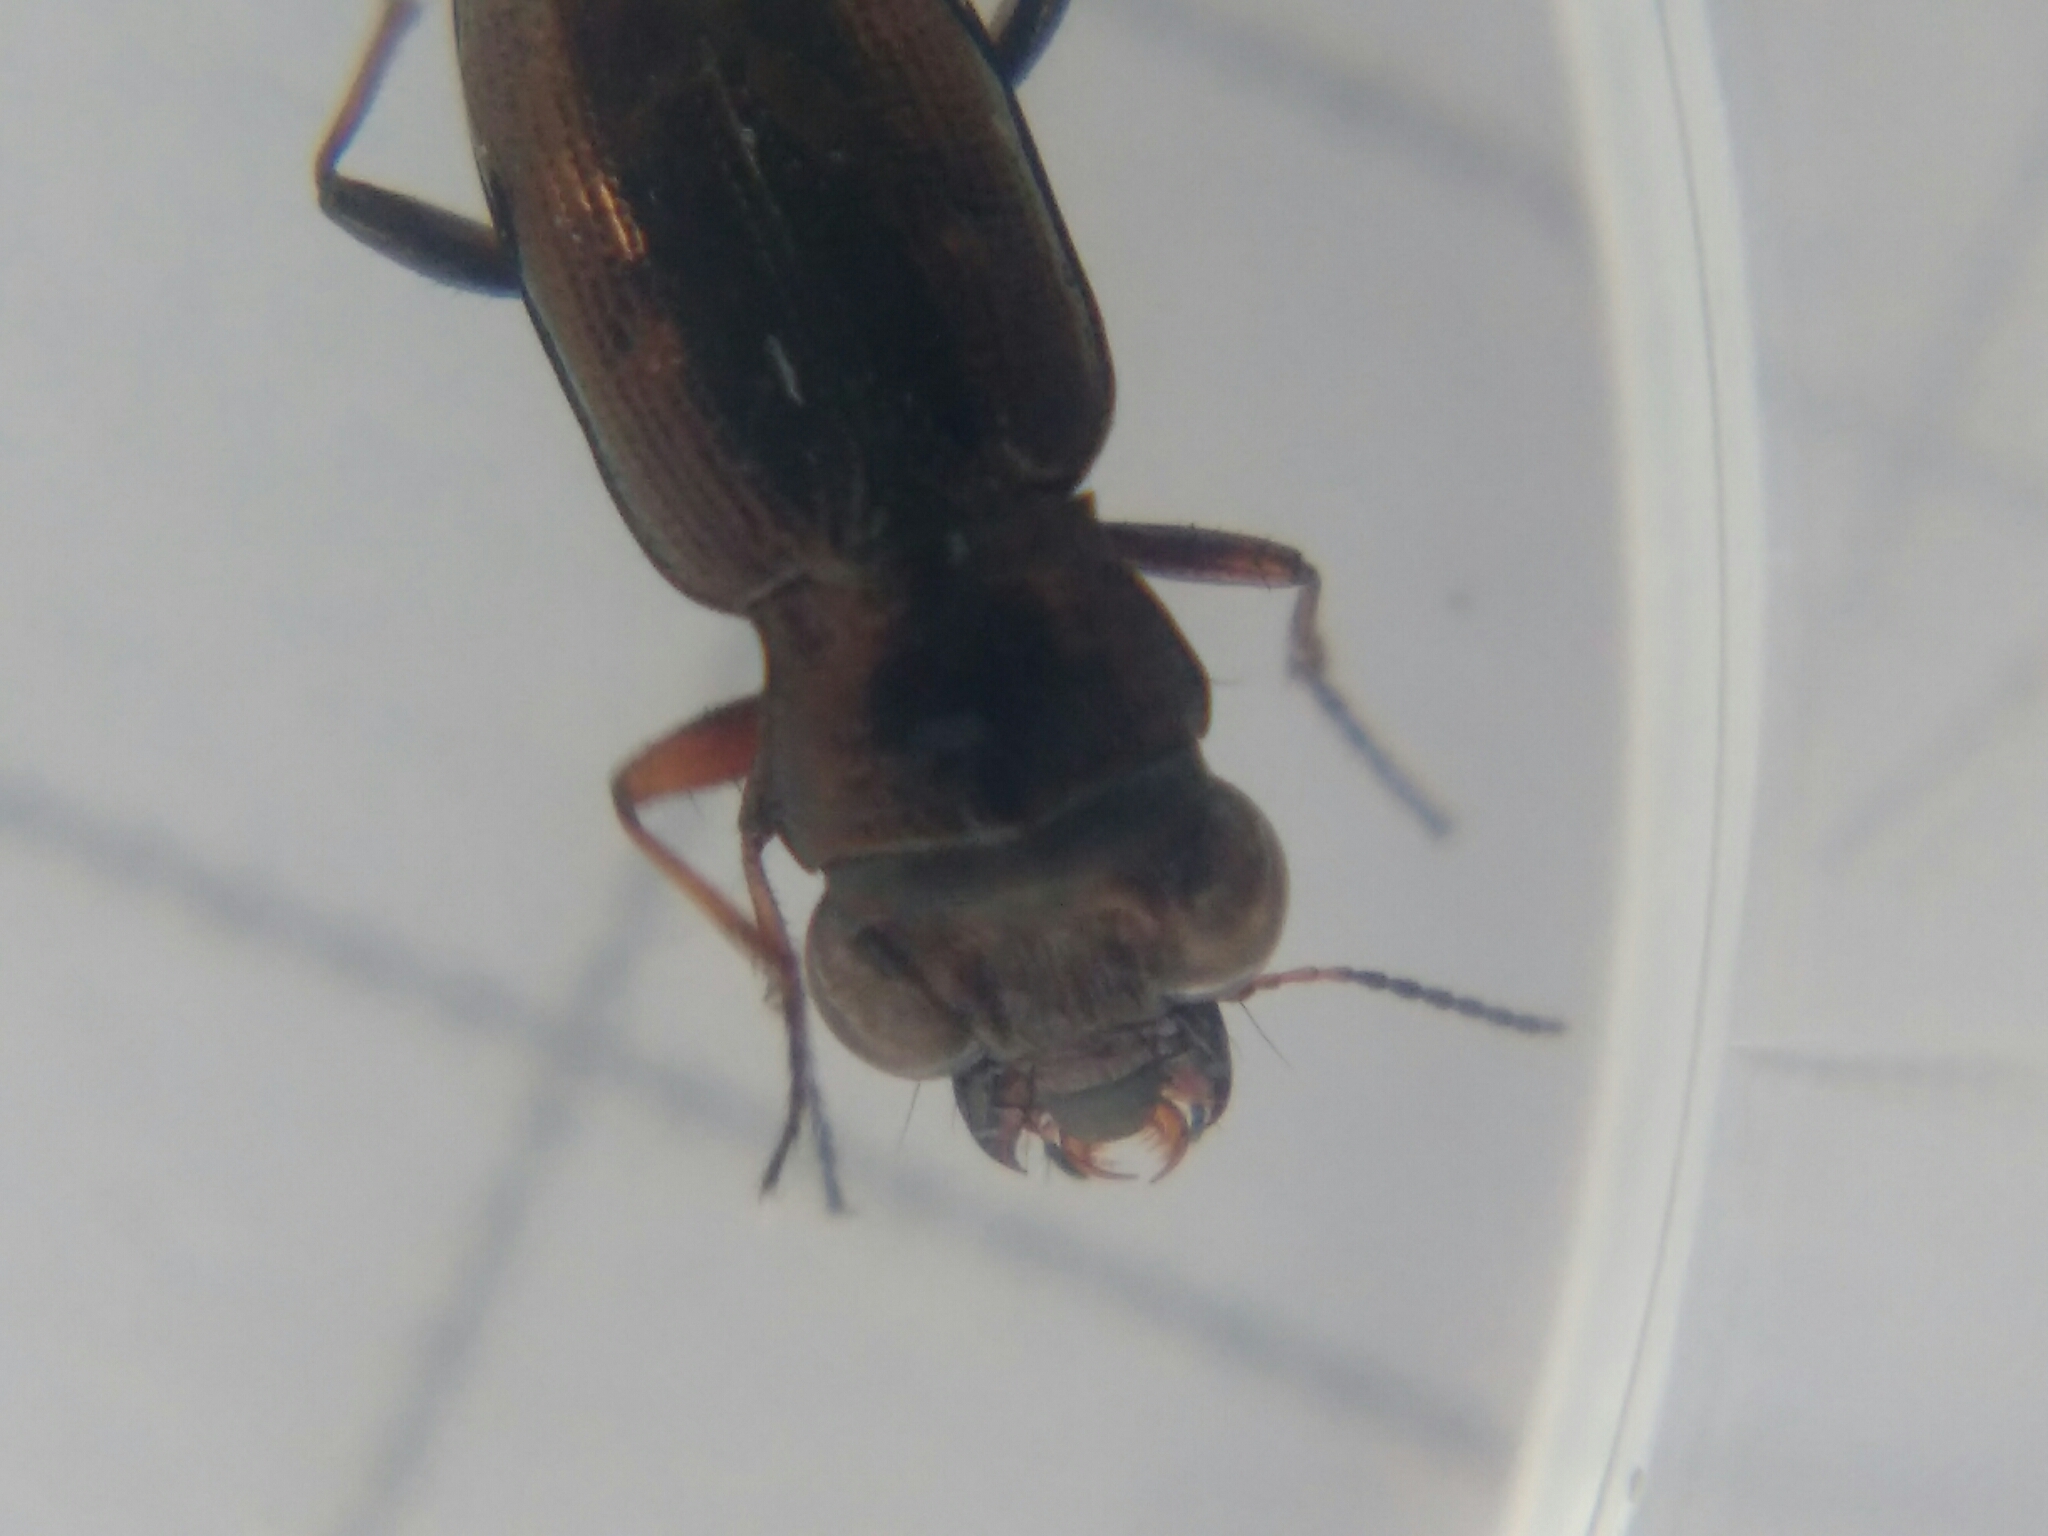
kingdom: Animalia
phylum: Arthropoda
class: Insecta
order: Coleoptera
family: Carabidae
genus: Notiophilus
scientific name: Notiophilus rufipes
